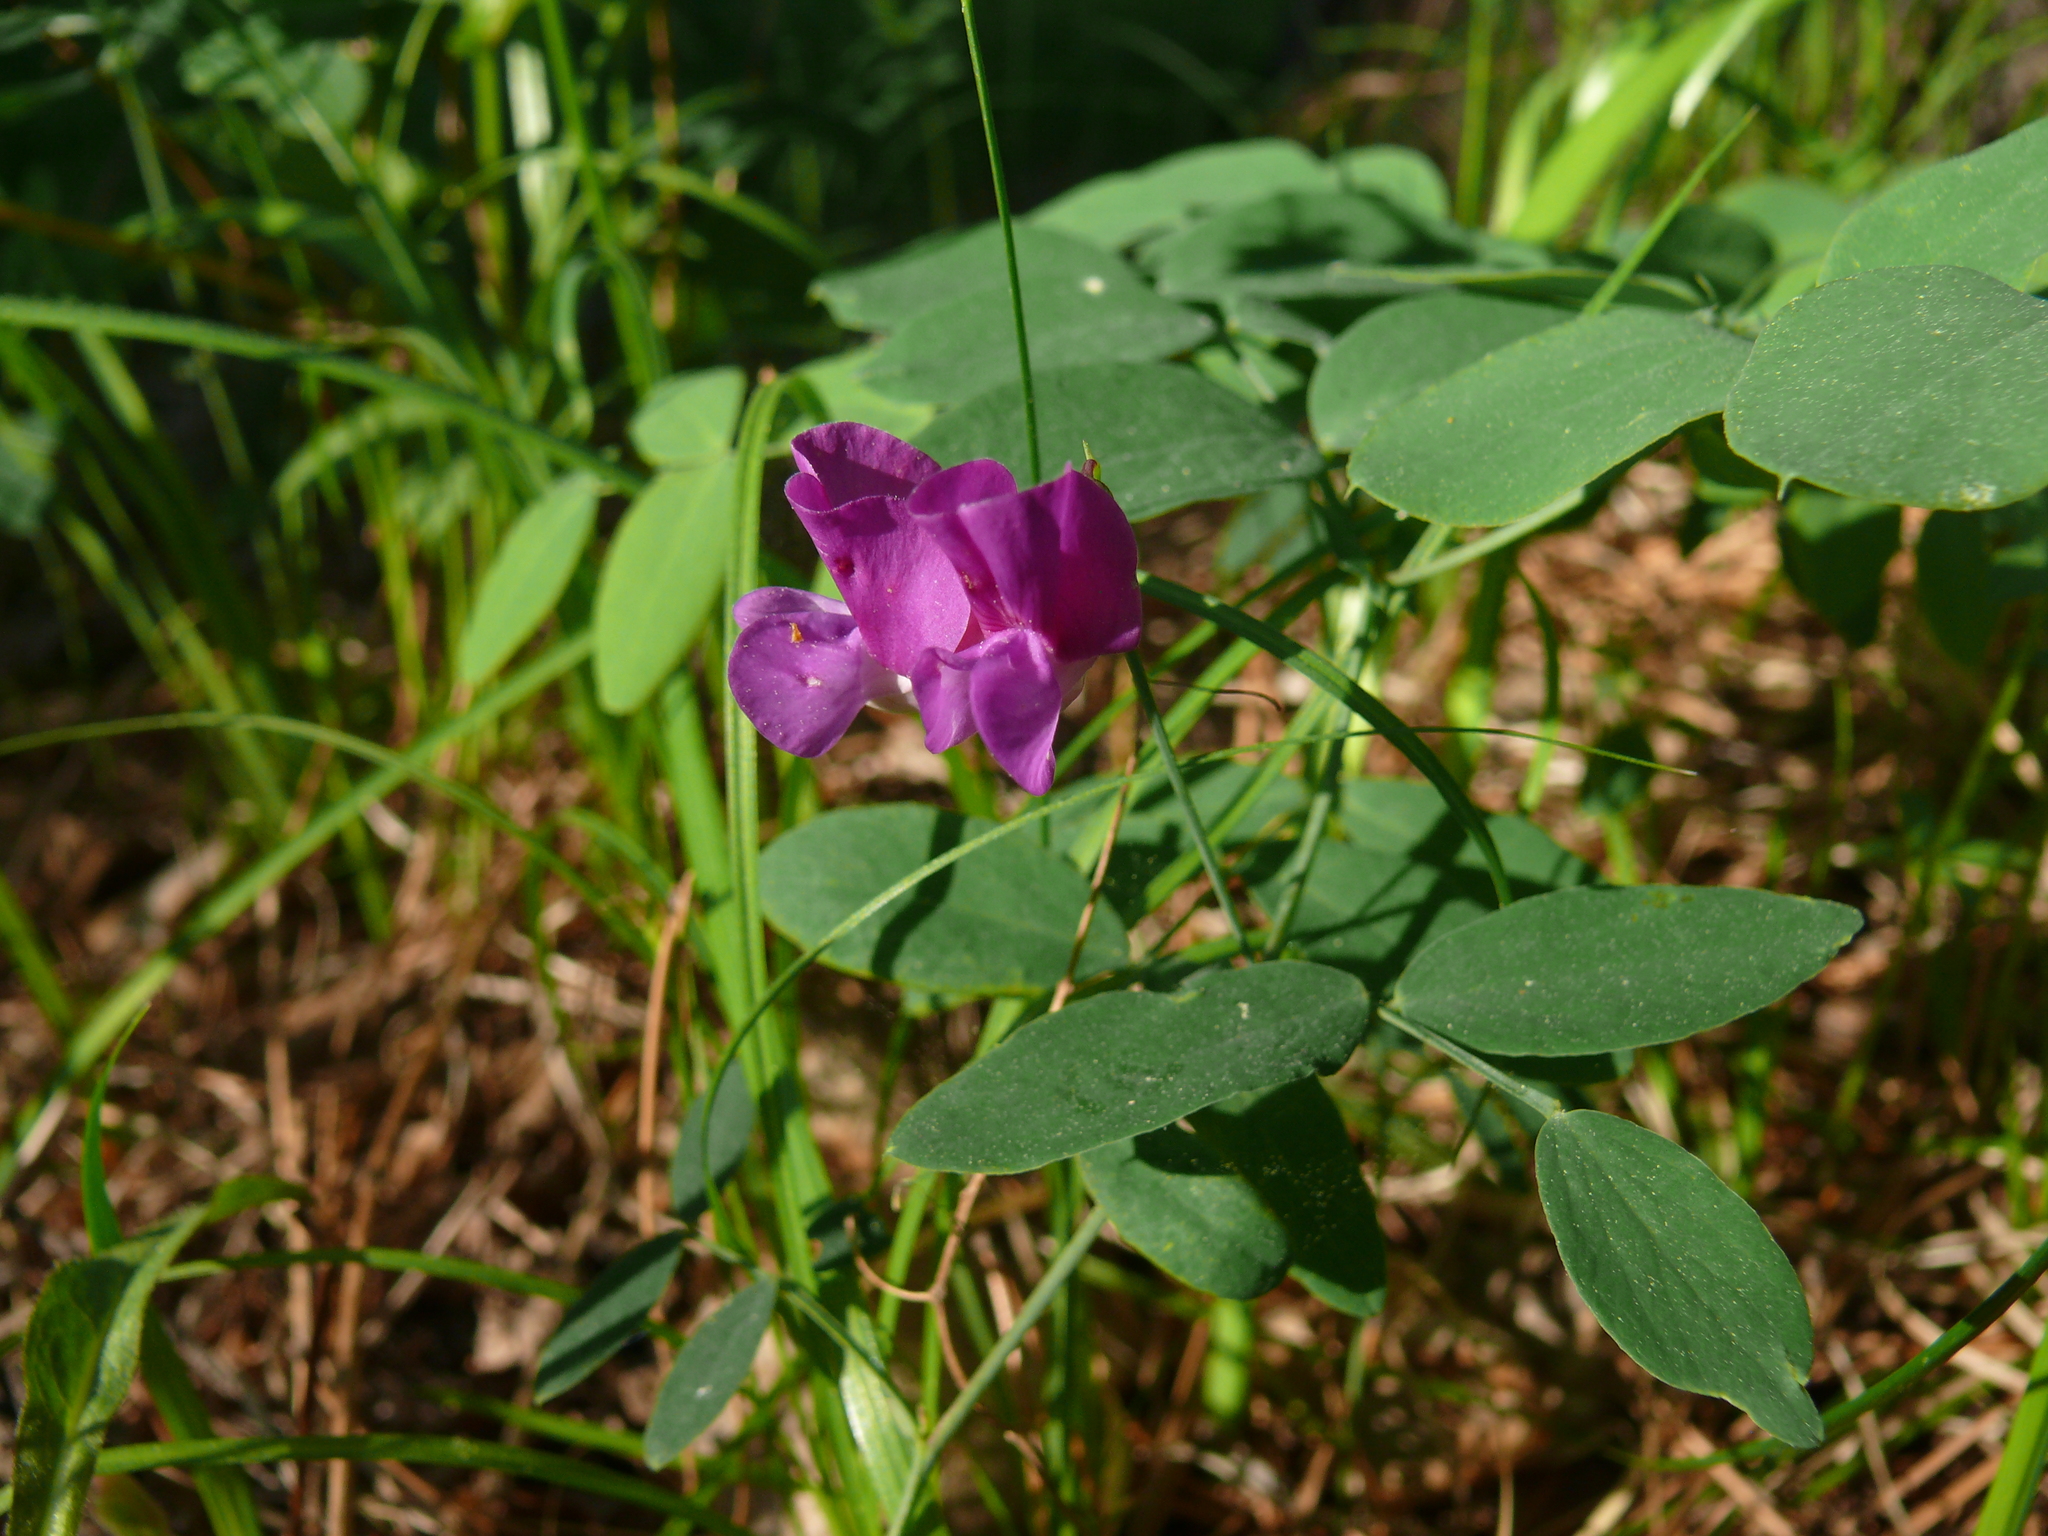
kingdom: Plantae
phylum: Tracheophyta
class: Magnoliopsida
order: Fabales
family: Fabaceae
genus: Lathyrus
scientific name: Lathyrus humilis
